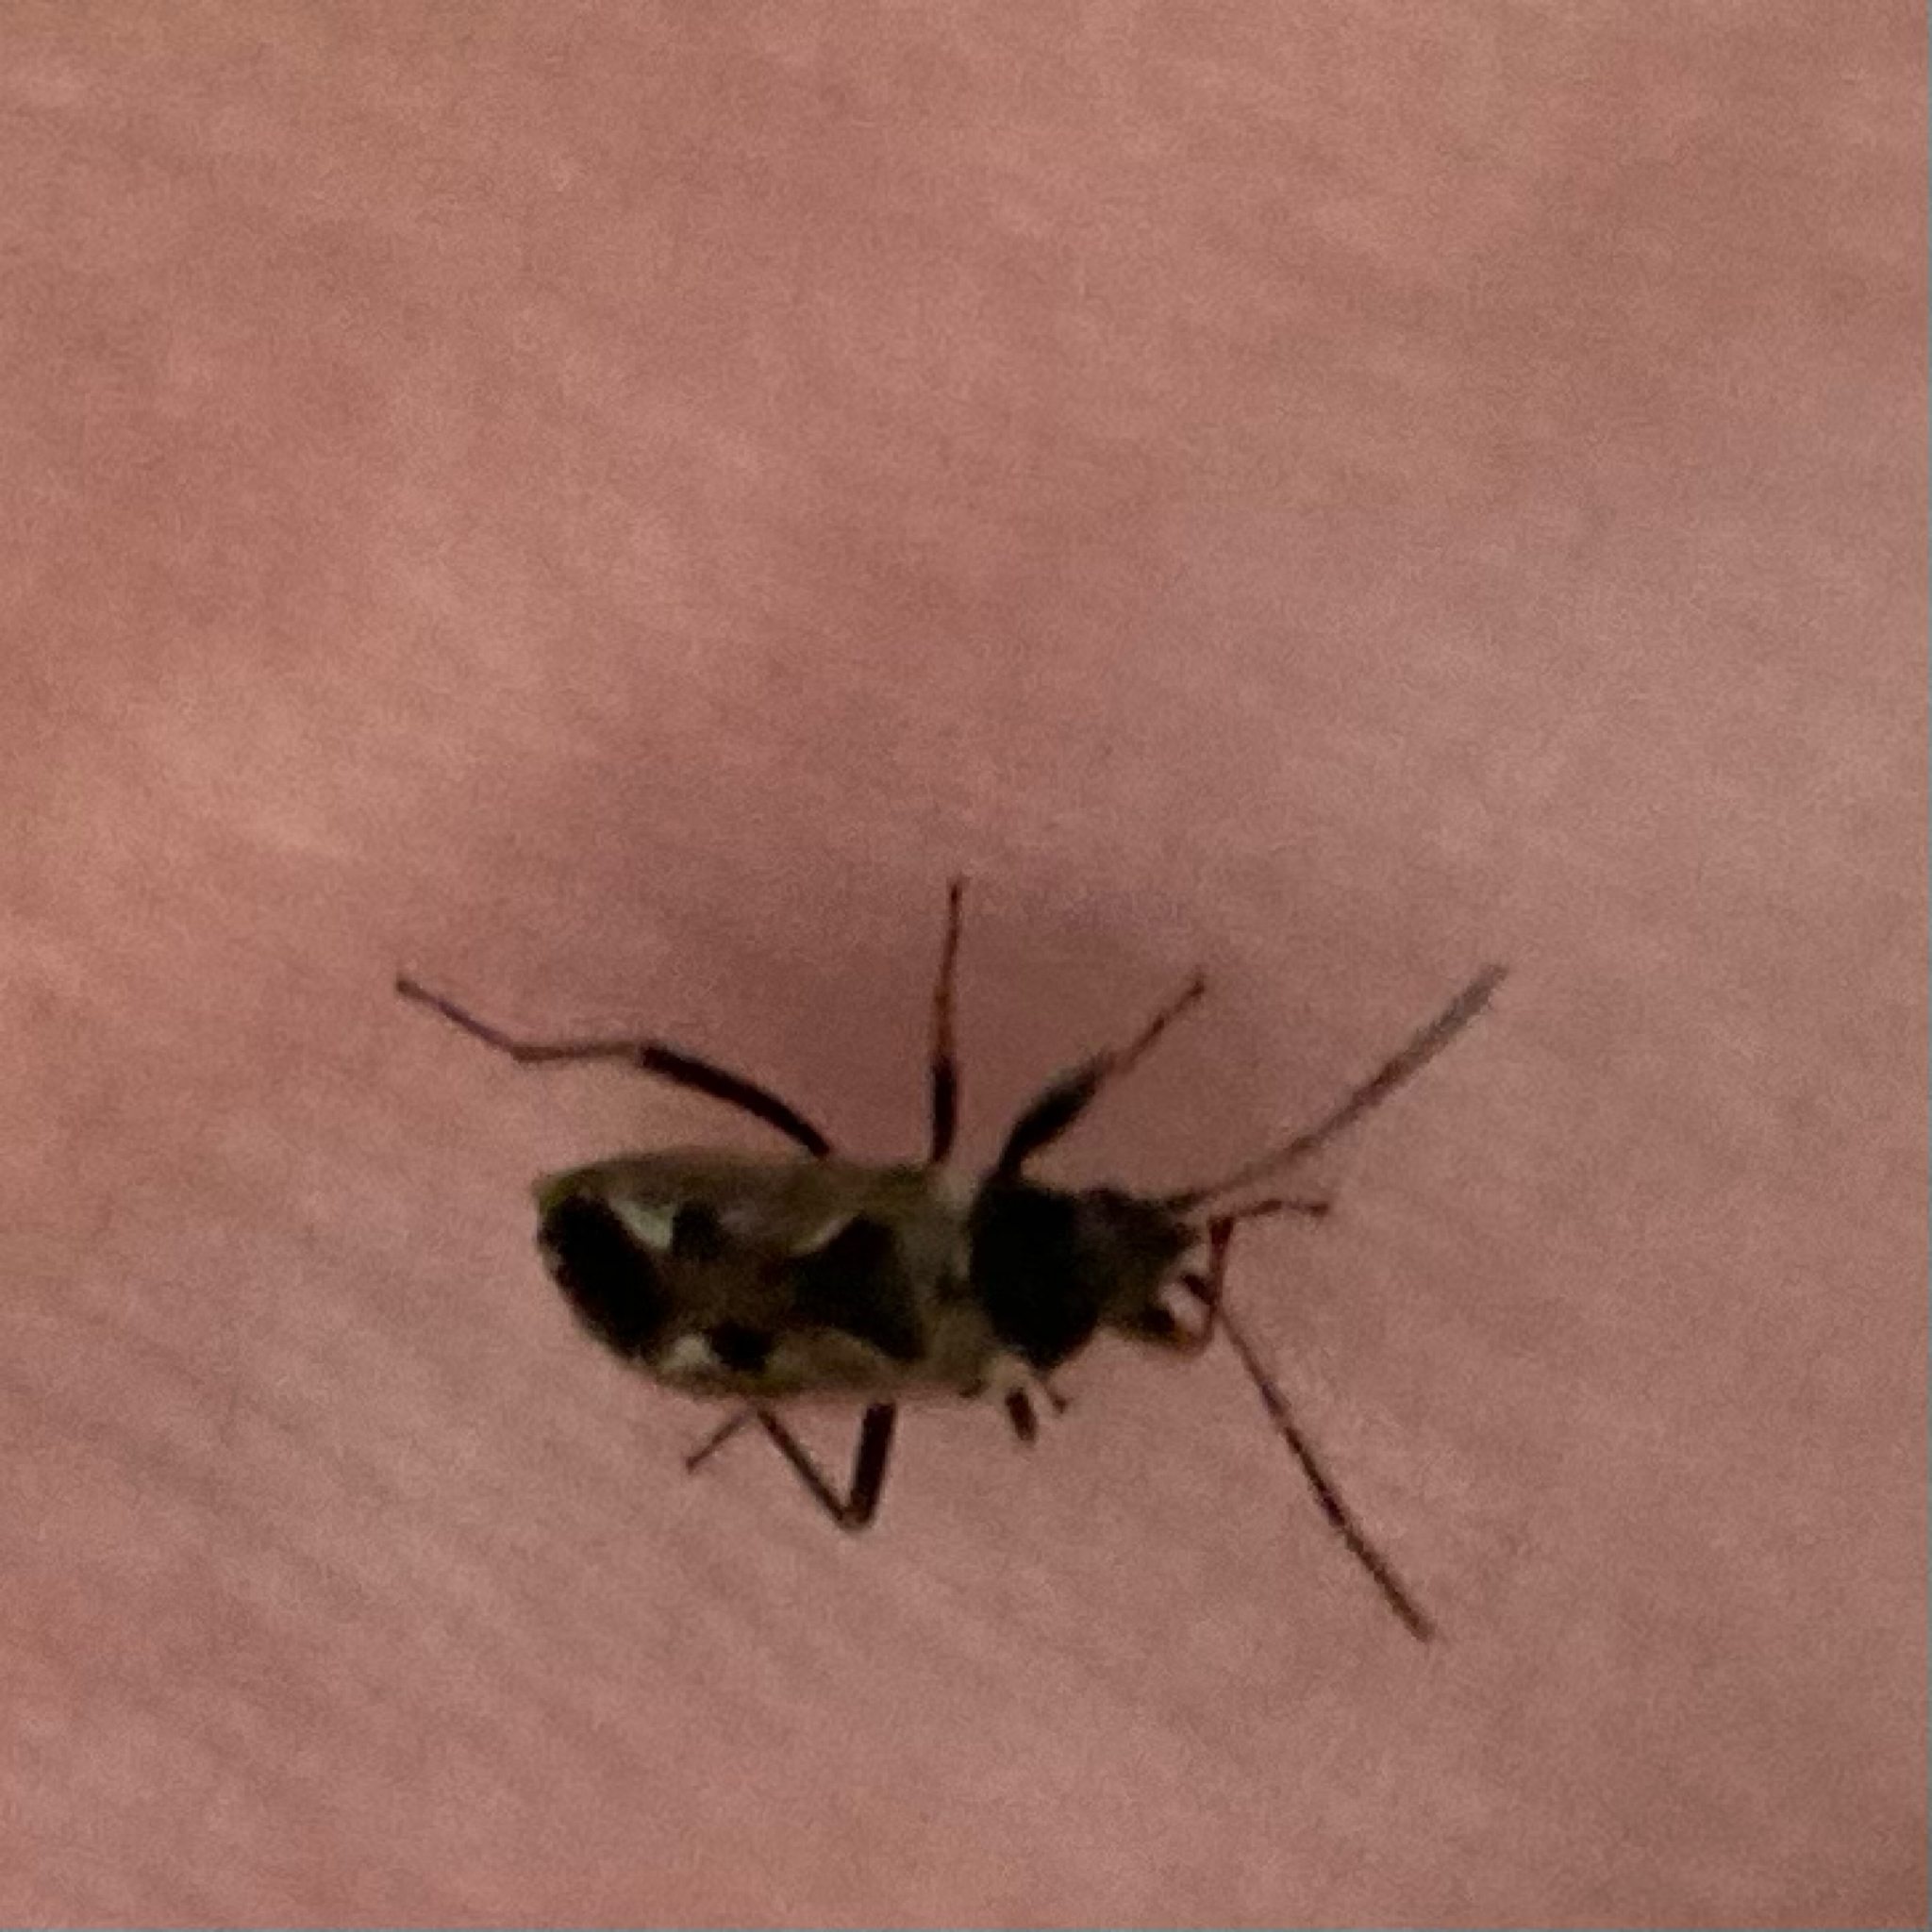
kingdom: Animalia
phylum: Arthropoda
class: Insecta
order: Hemiptera
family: Rhyparochromidae
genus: Rhyparochromus
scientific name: Rhyparochromus vulgaris
